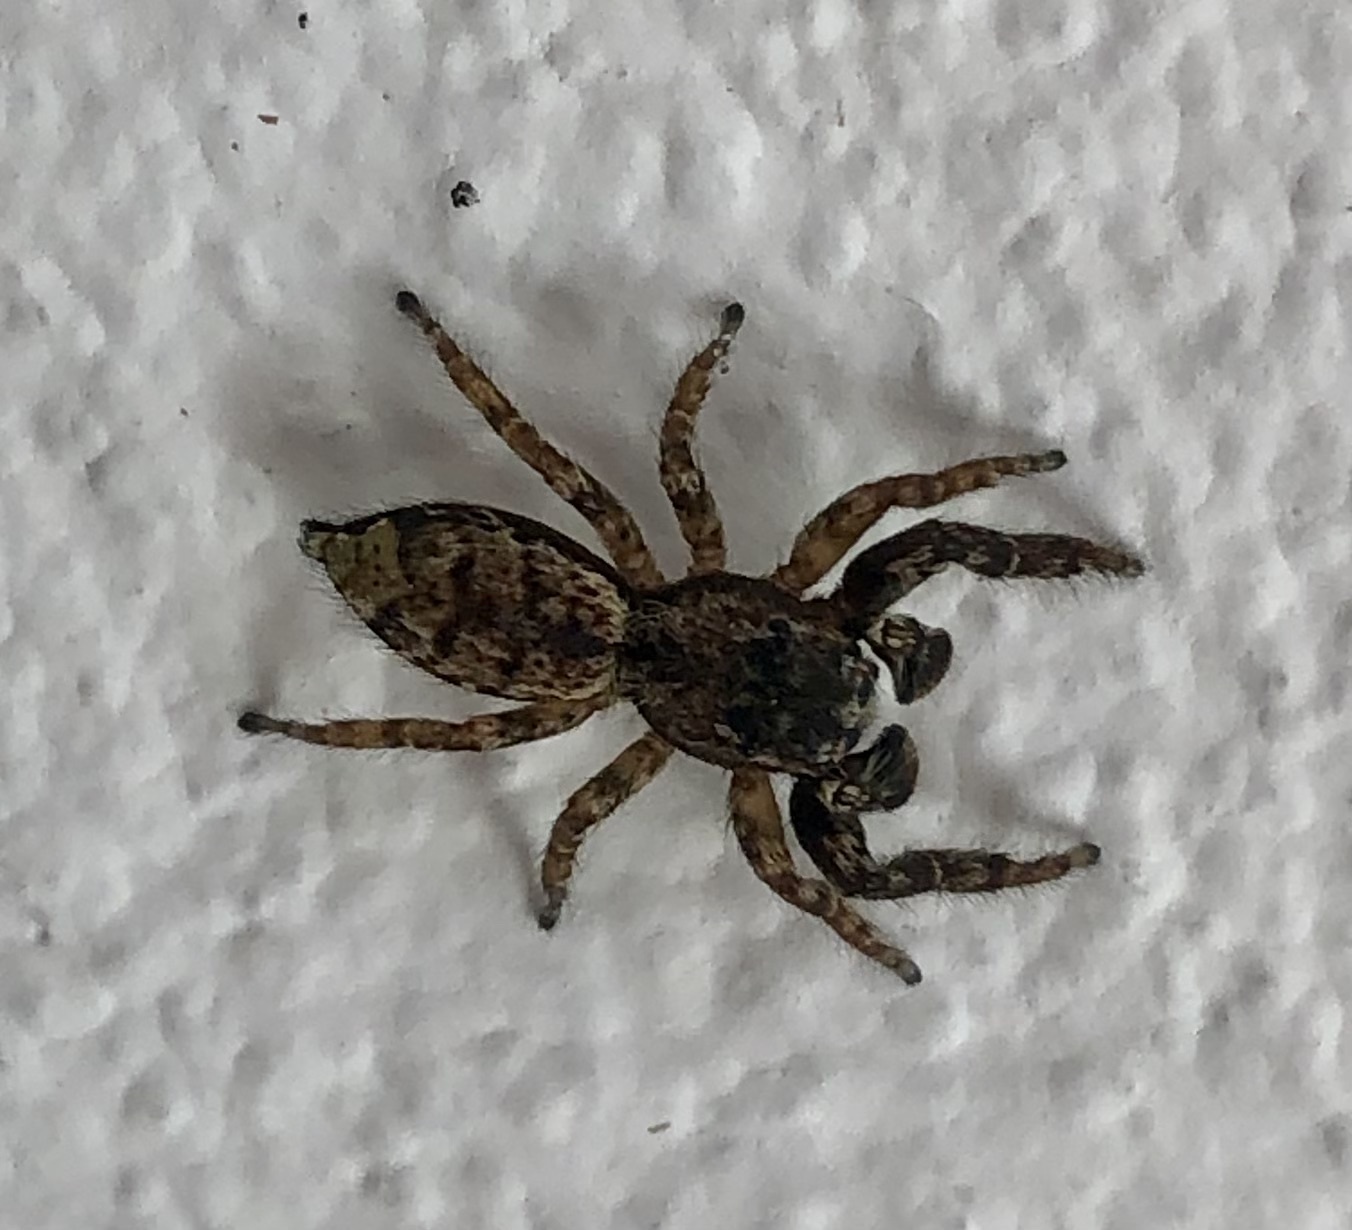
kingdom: Animalia
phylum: Arthropoda
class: Arachnida
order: Araneae
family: Salticidae
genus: Marpissa
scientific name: Marpissa muscosa
